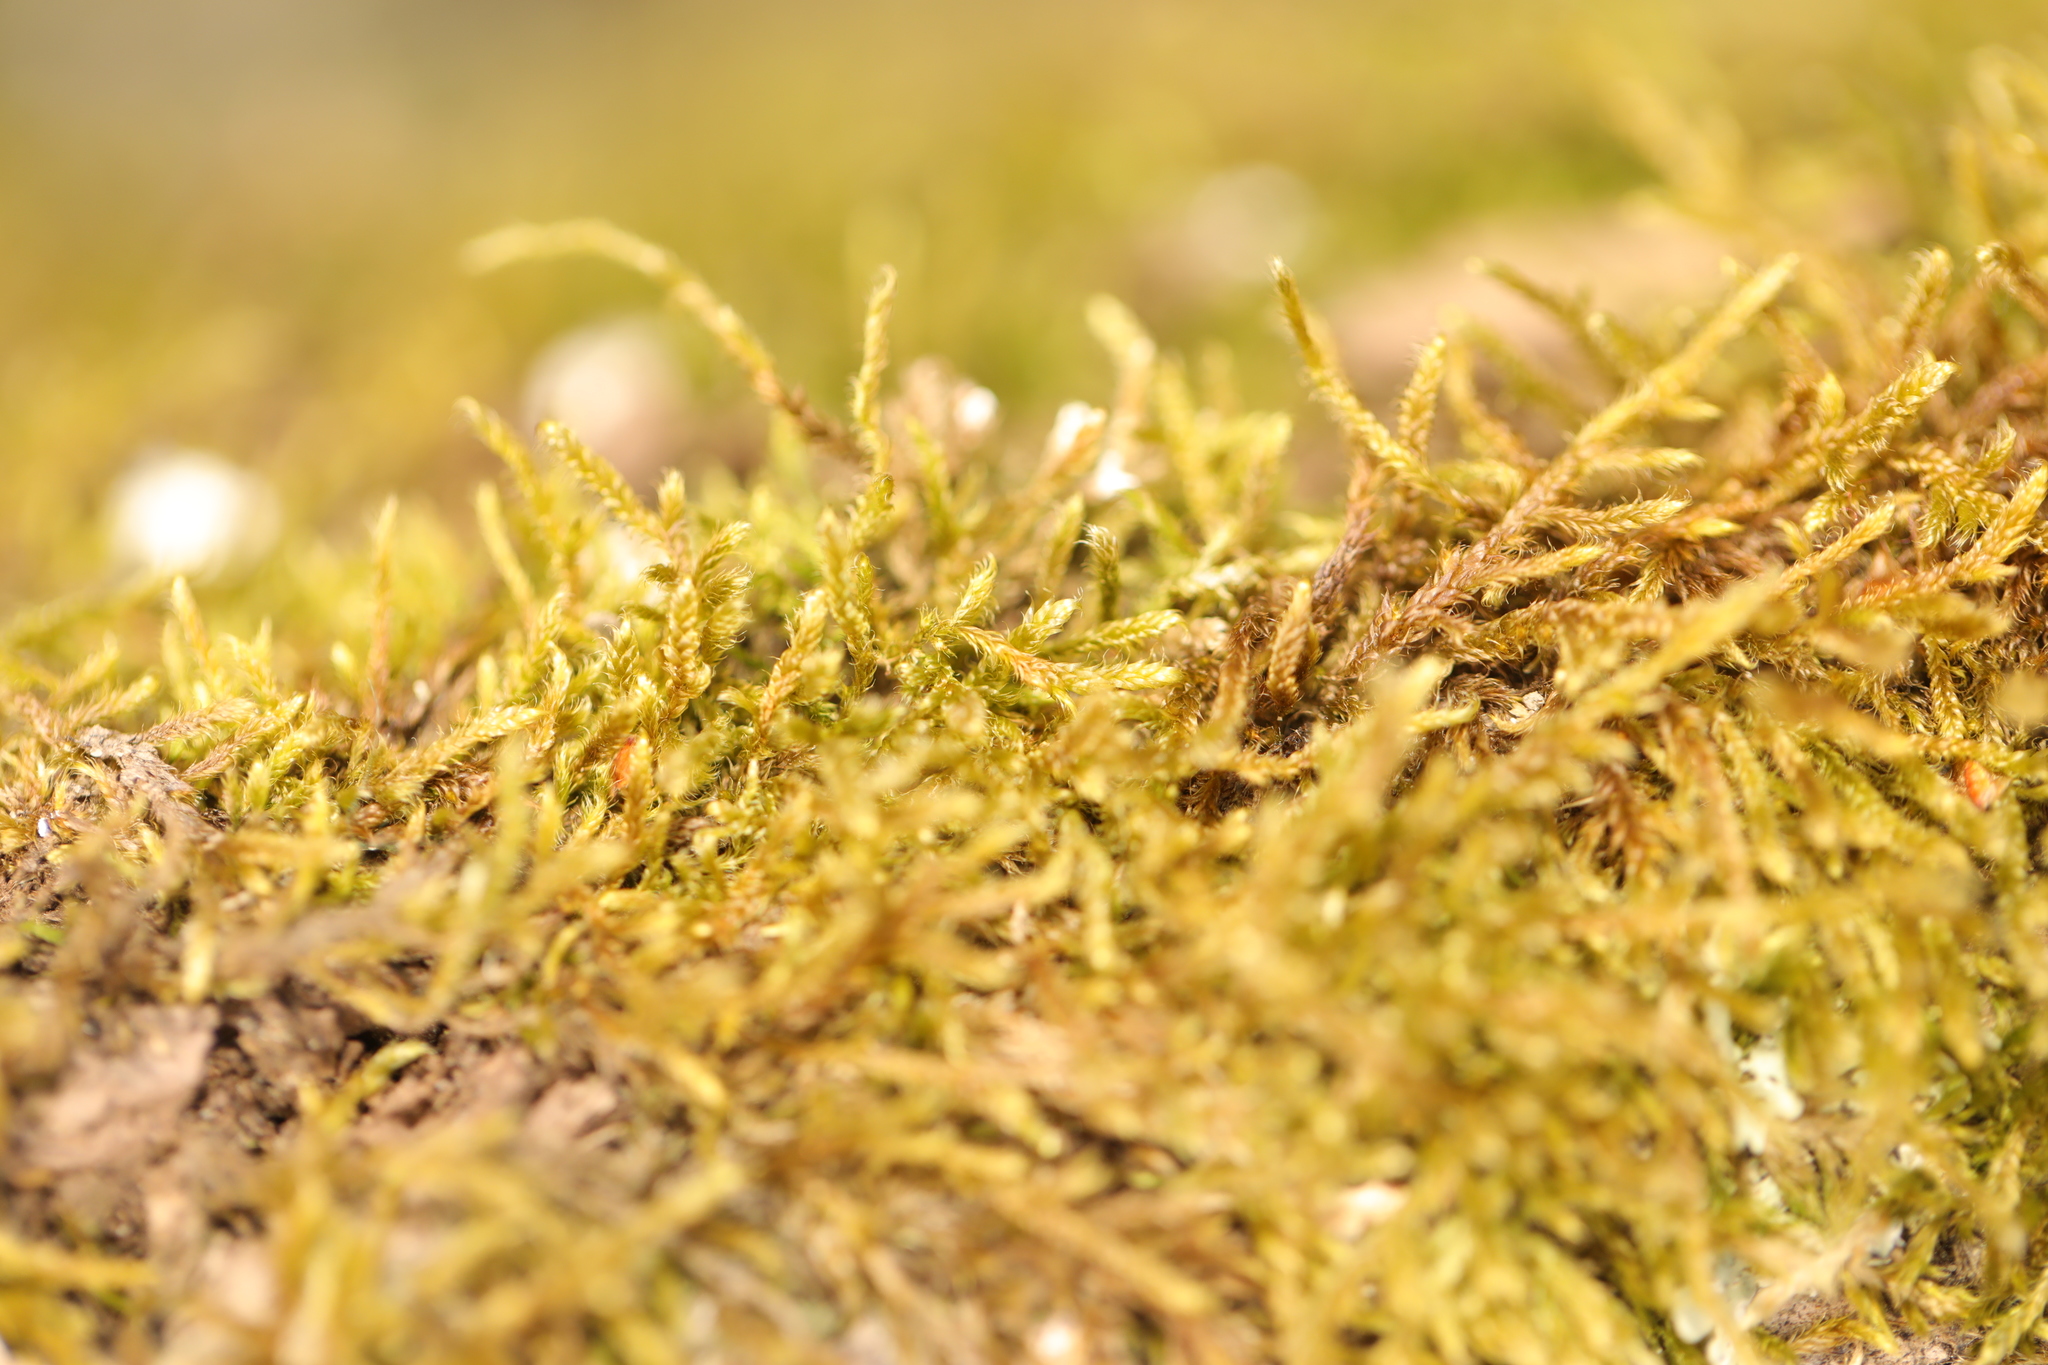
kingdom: Plantae
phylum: Bryophyta
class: Bryopsida
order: Hypnales
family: Hypnaceae
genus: Hypnum
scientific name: Hypnum cupressiforme
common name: Cypress-leaved plait-moss
